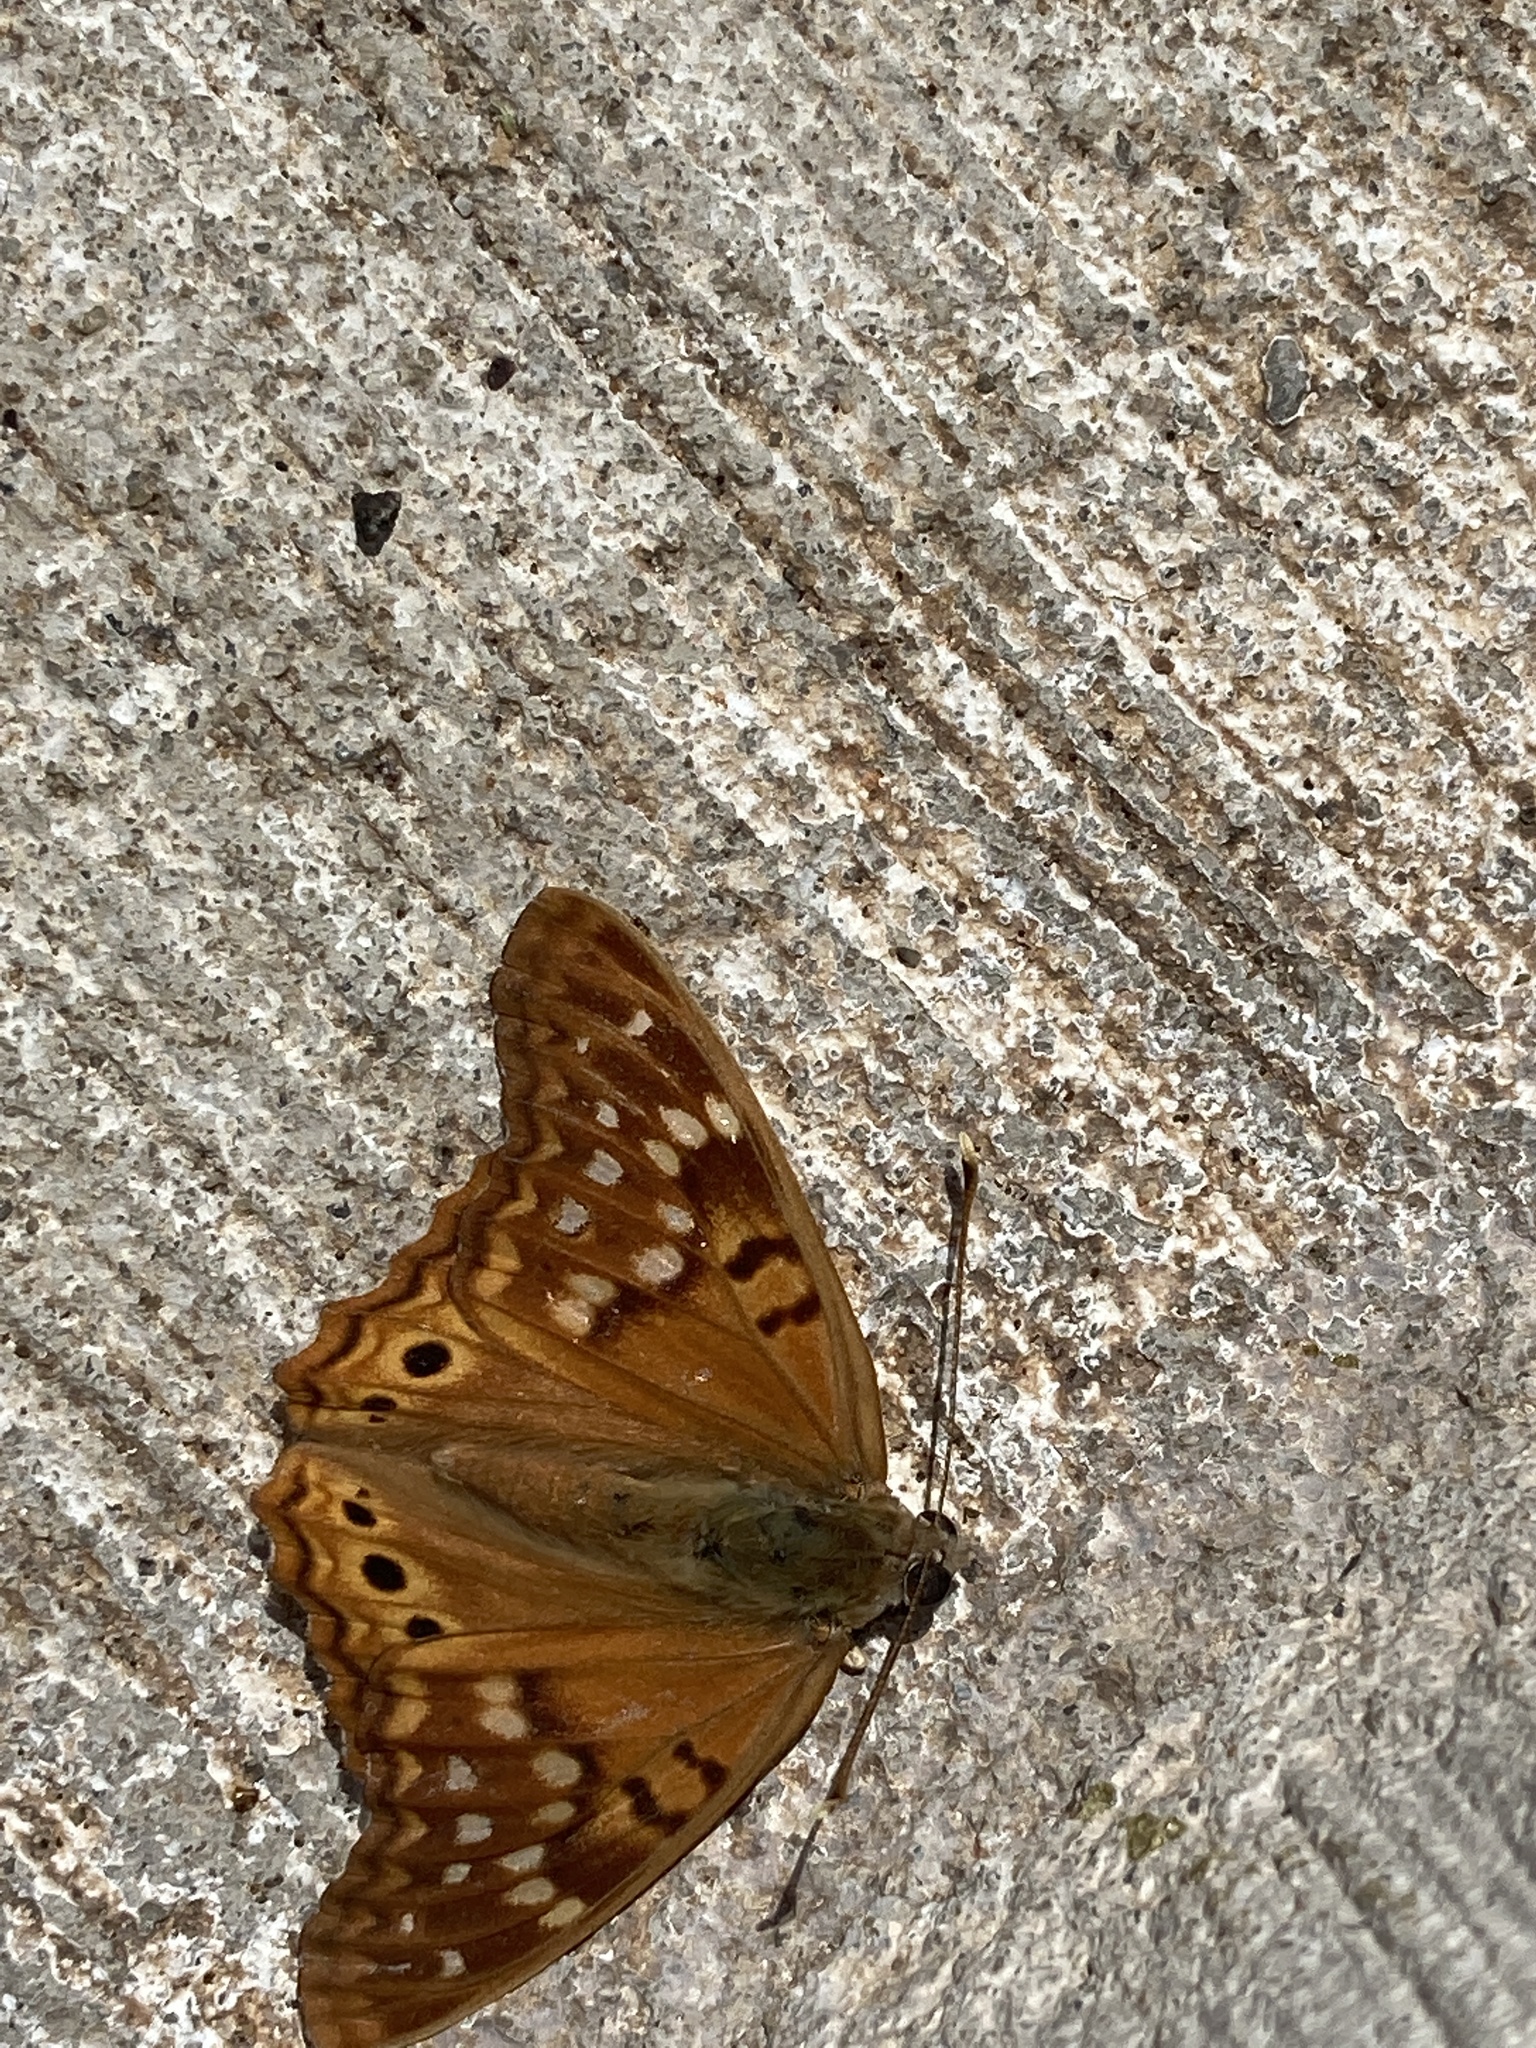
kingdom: Animalia
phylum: Arthropoda
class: Insecta
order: Lepidoptera
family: Nymphalidae
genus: Asterocampa
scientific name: Asterocampa clyton
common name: Tawny emperor
